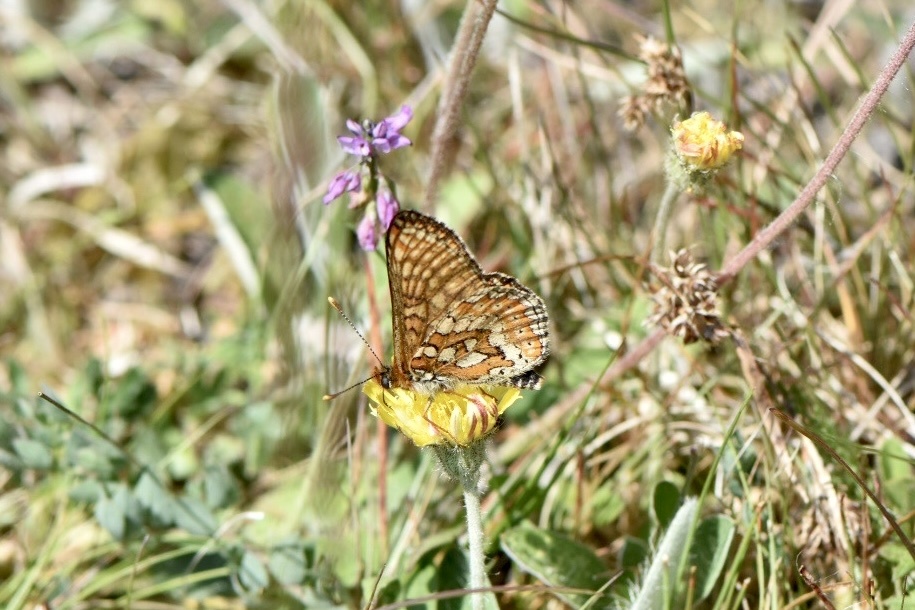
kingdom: Animalia
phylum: Arthropoda
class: Insecta
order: Lepidoptera
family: Nymphalidae
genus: Euphydryas
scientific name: Euphydryas aurinia
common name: Marsh fritillary
